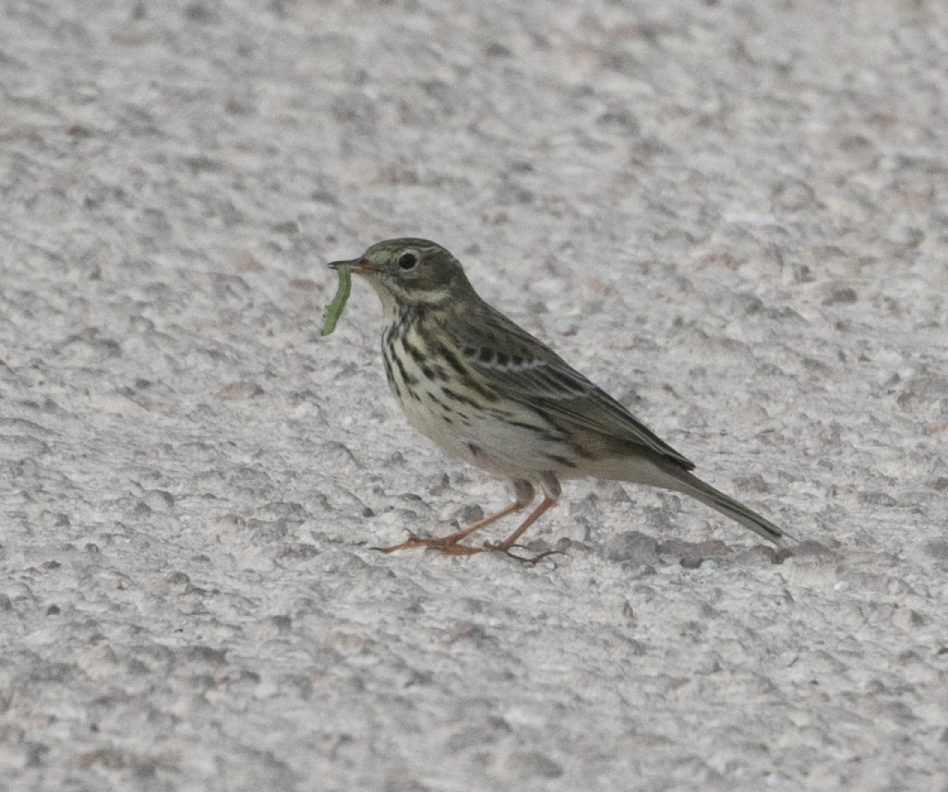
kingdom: Animalia
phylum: Chordata
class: Aves
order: Passeriformes
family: Motacillidae
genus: Anthus
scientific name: Anthus pratensis
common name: Meadow pipit
